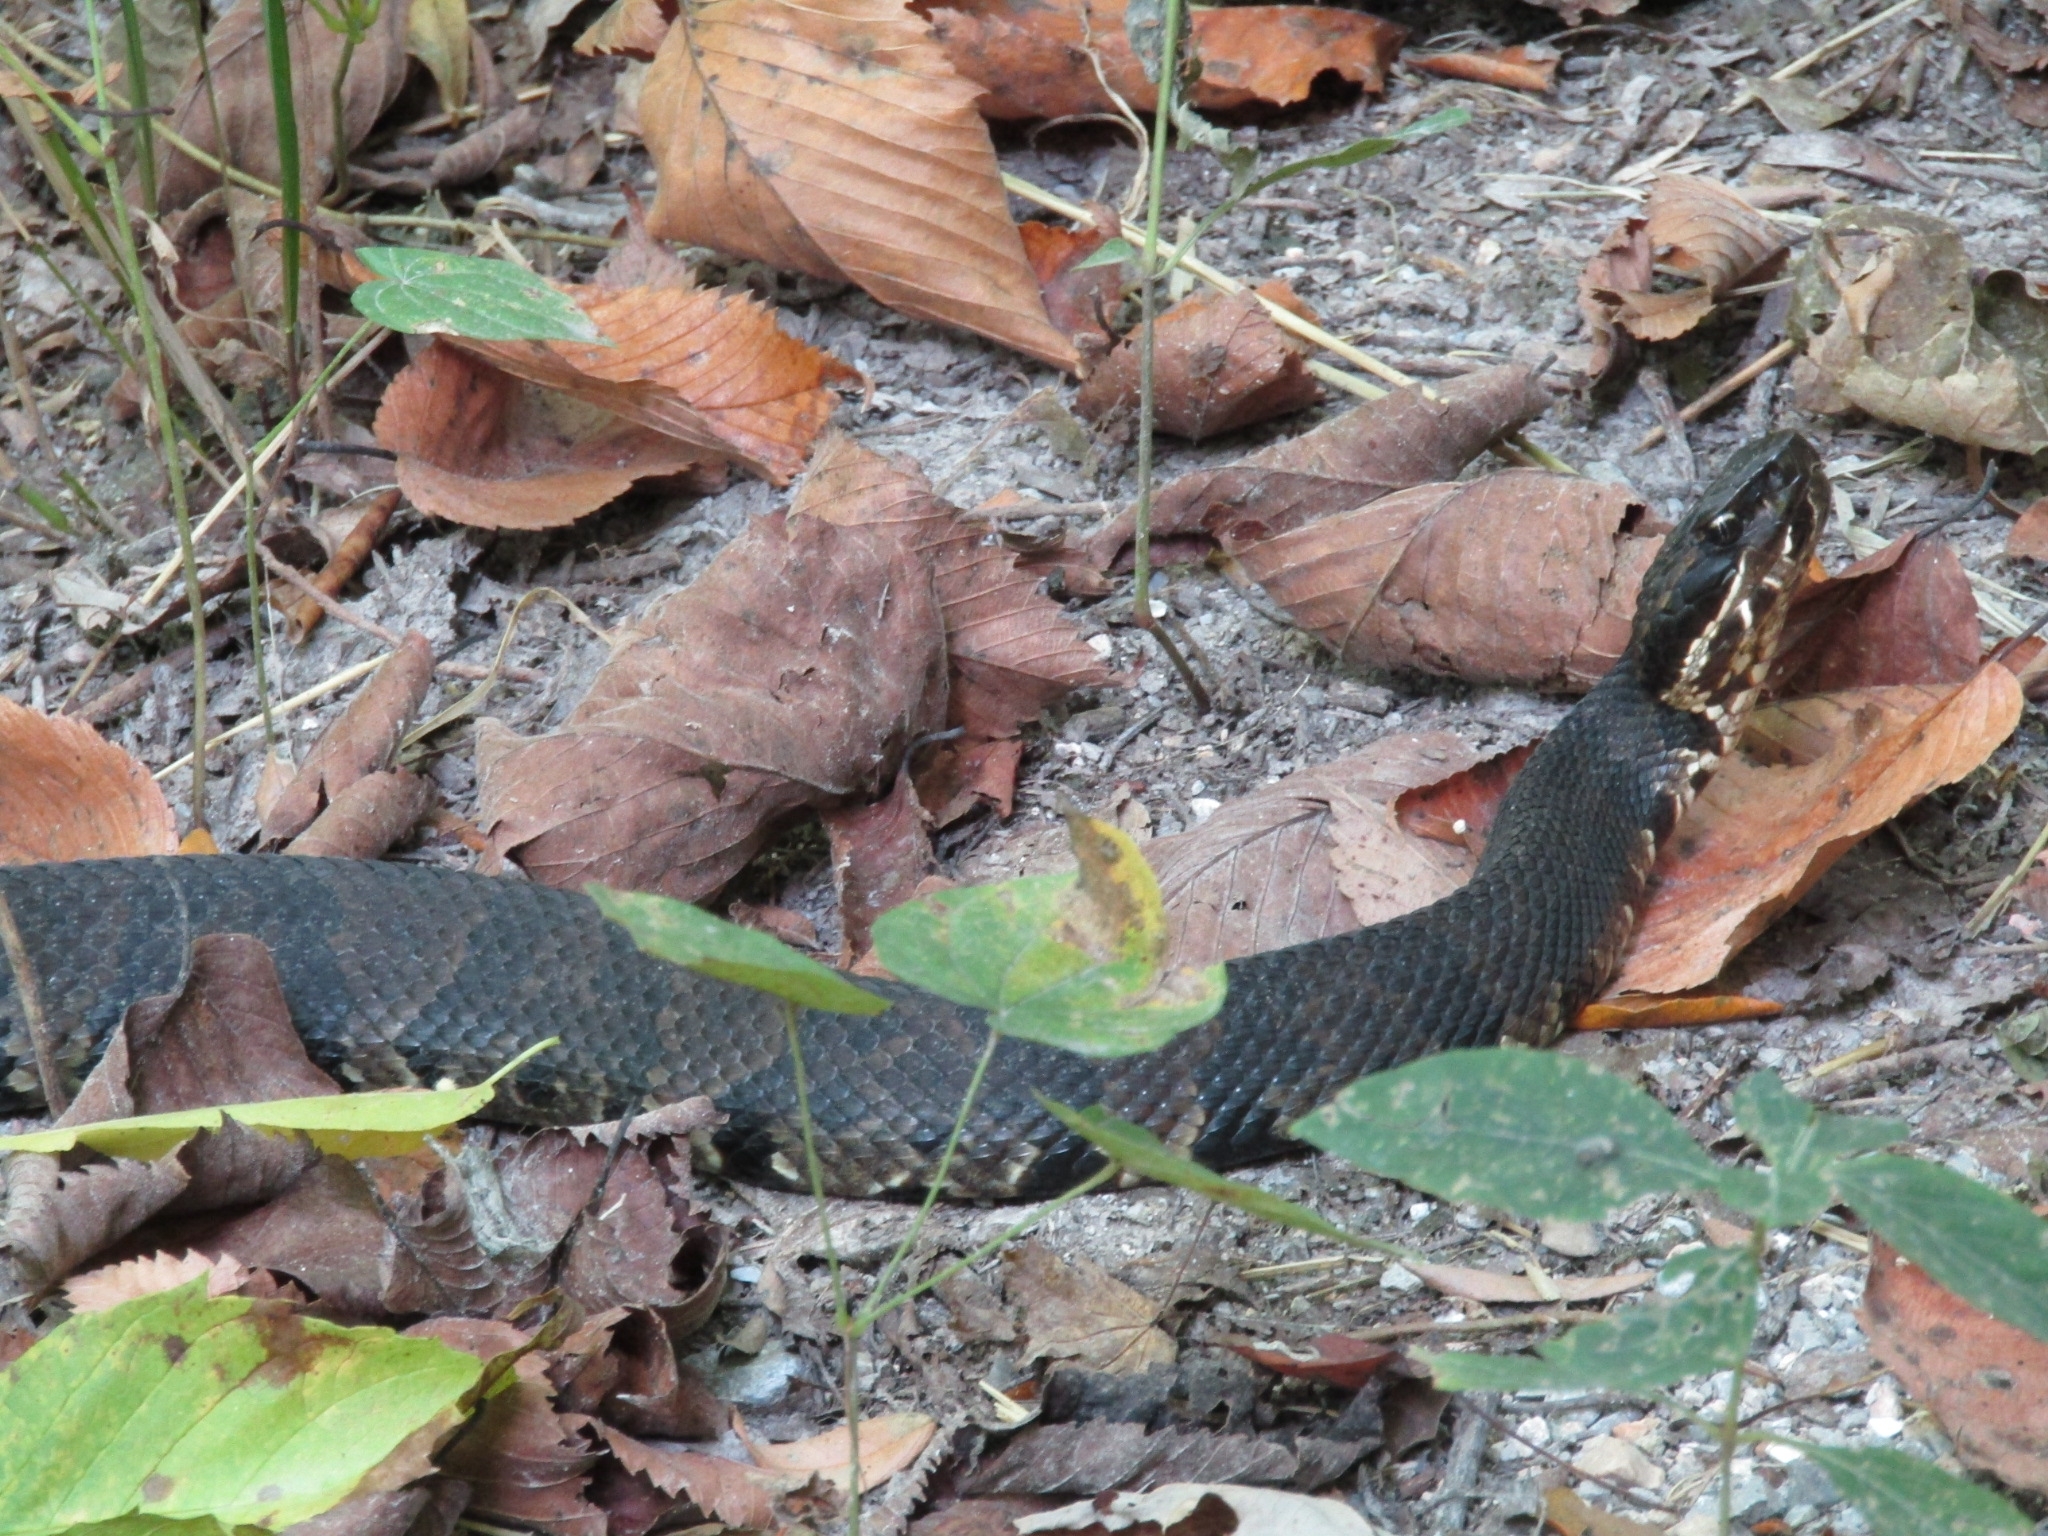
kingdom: Animalia
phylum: Chordata
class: Squamata
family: Viperidae
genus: Agkistrodon
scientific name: Agkistrodon piscivorus
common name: Cottonmouth
